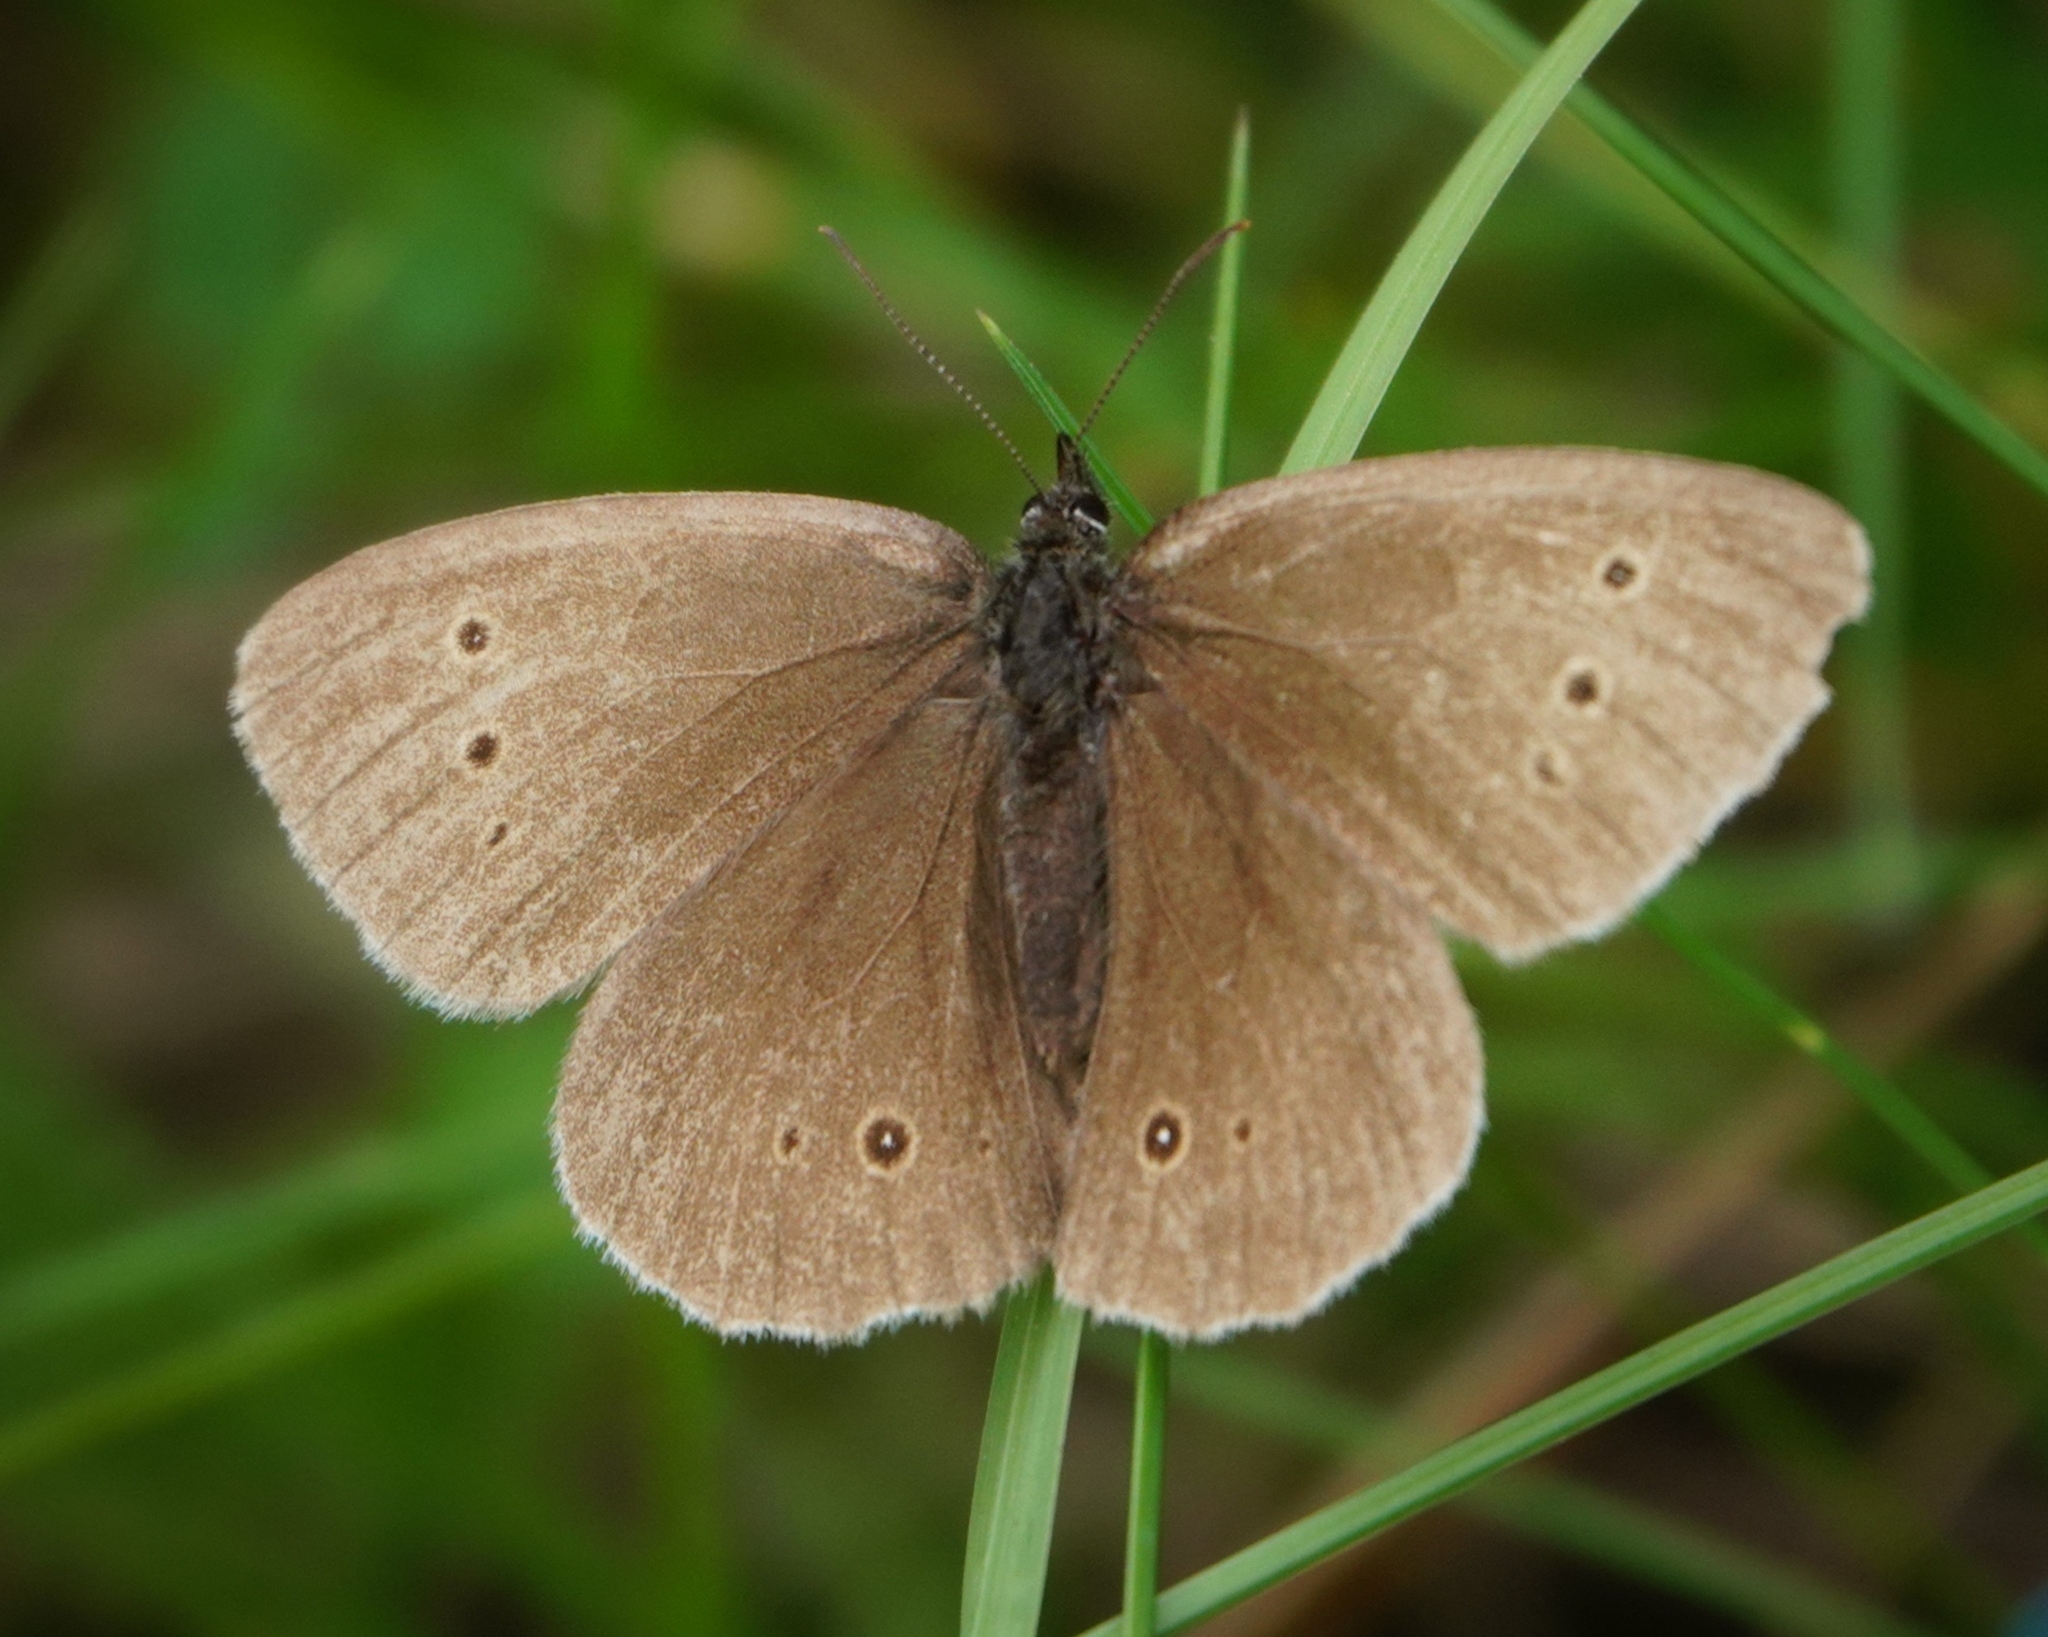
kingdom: Animalia
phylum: Arthropoda
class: Insecta
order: Lepidoptera
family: Nymphalidae
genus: Aphantopus
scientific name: Aphantopus hyperantus
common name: Ringlet
